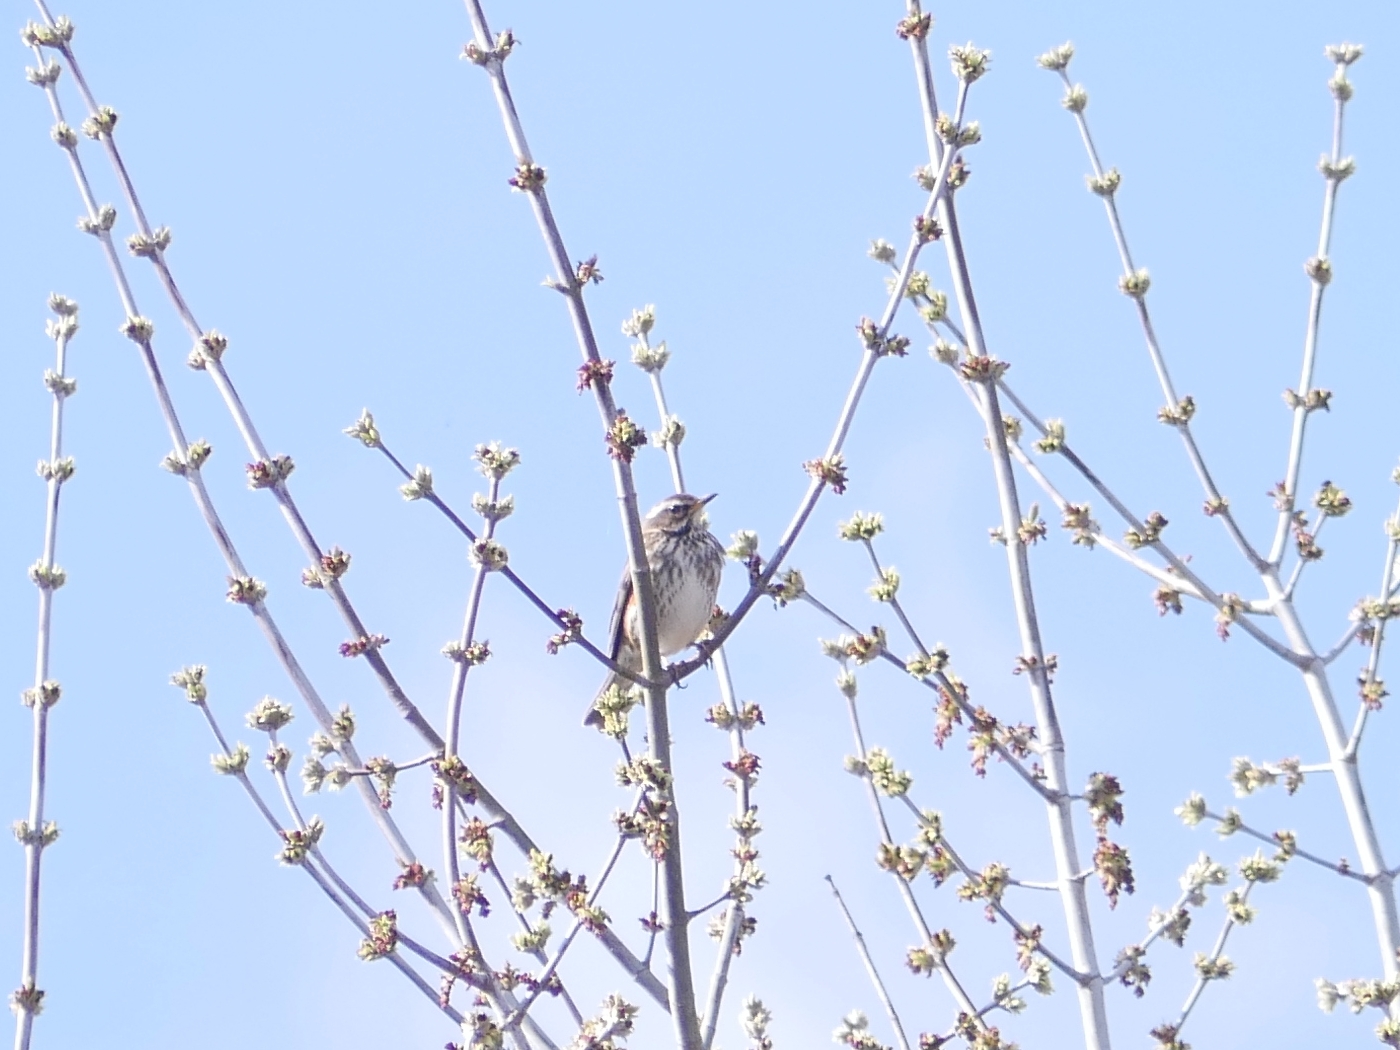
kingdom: Animalia
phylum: Chordata
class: Aves
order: Passeriformes
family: Turdidae
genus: Turdus
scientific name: Turdus iliacus
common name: Redwing
